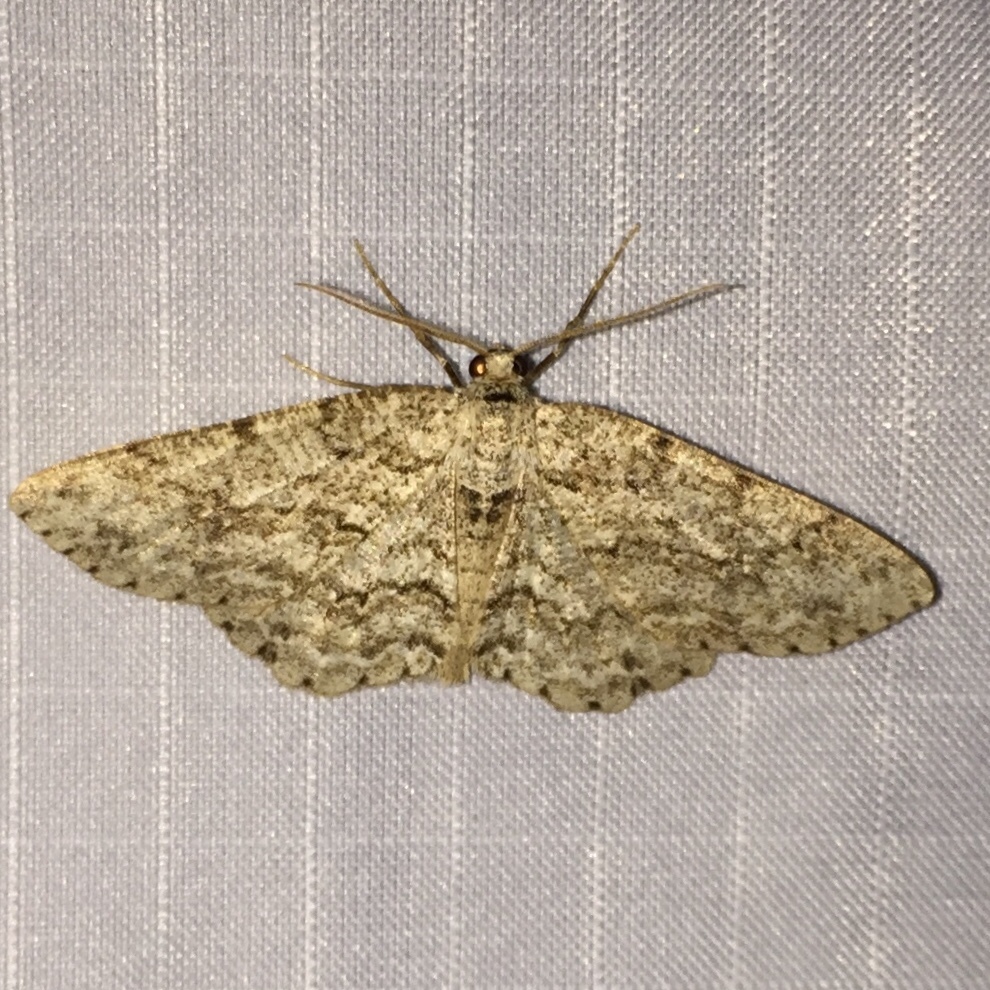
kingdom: Animalia
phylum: Arthropoda
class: Insecta
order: Lepidoptera
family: Geometridae
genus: Ectropis
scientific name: Ectropis crepuscularia
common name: Engrailed
